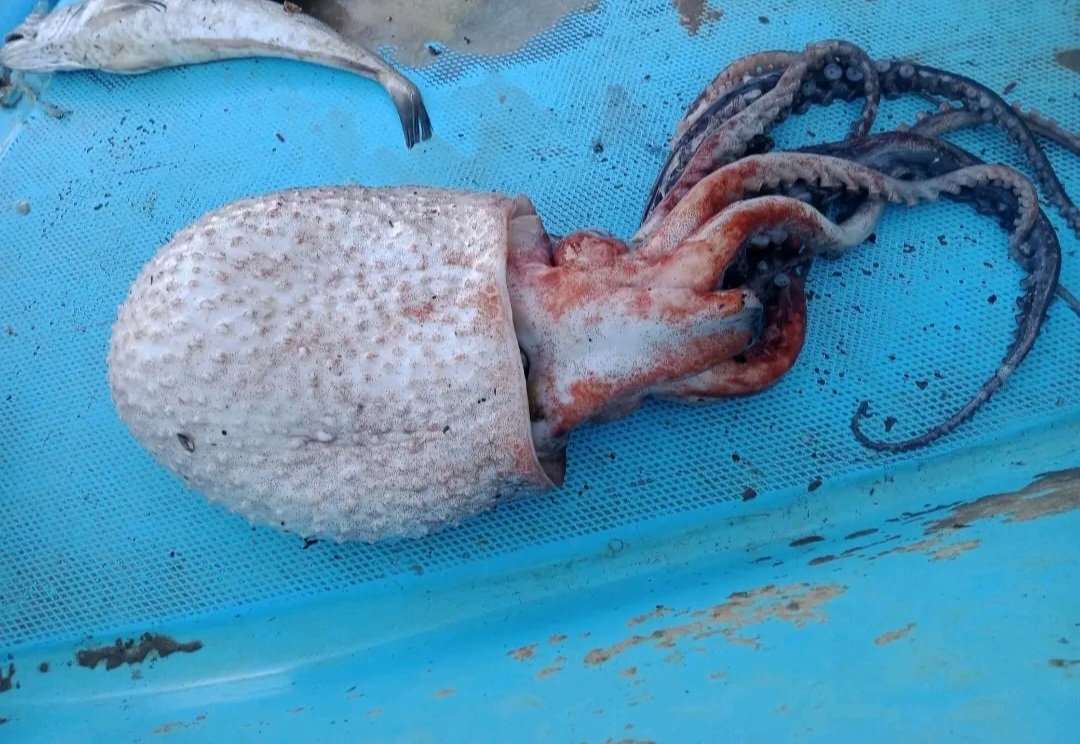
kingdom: Animalia
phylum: Mollusca
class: Cephalopoda
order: Octopoda
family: Ocythoidae
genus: Ocythoe
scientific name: Ocythoe tuberculata
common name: Football octopus
